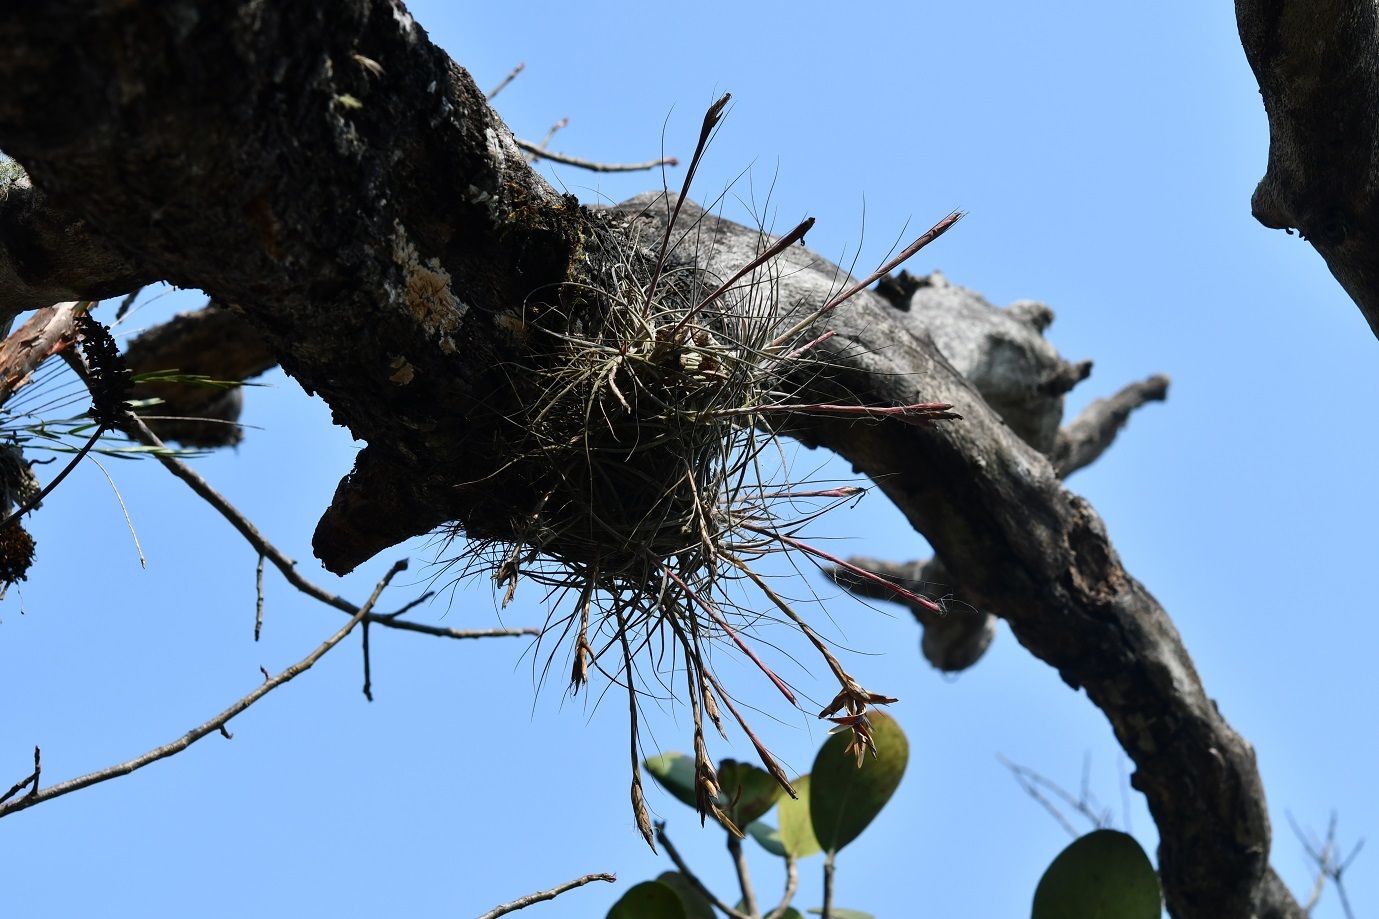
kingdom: Plantae
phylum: Tracheophyta
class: Liliopsida
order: Poales
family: Bromeliaceae
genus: Tillandsia
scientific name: Tillandsia schiedeana
